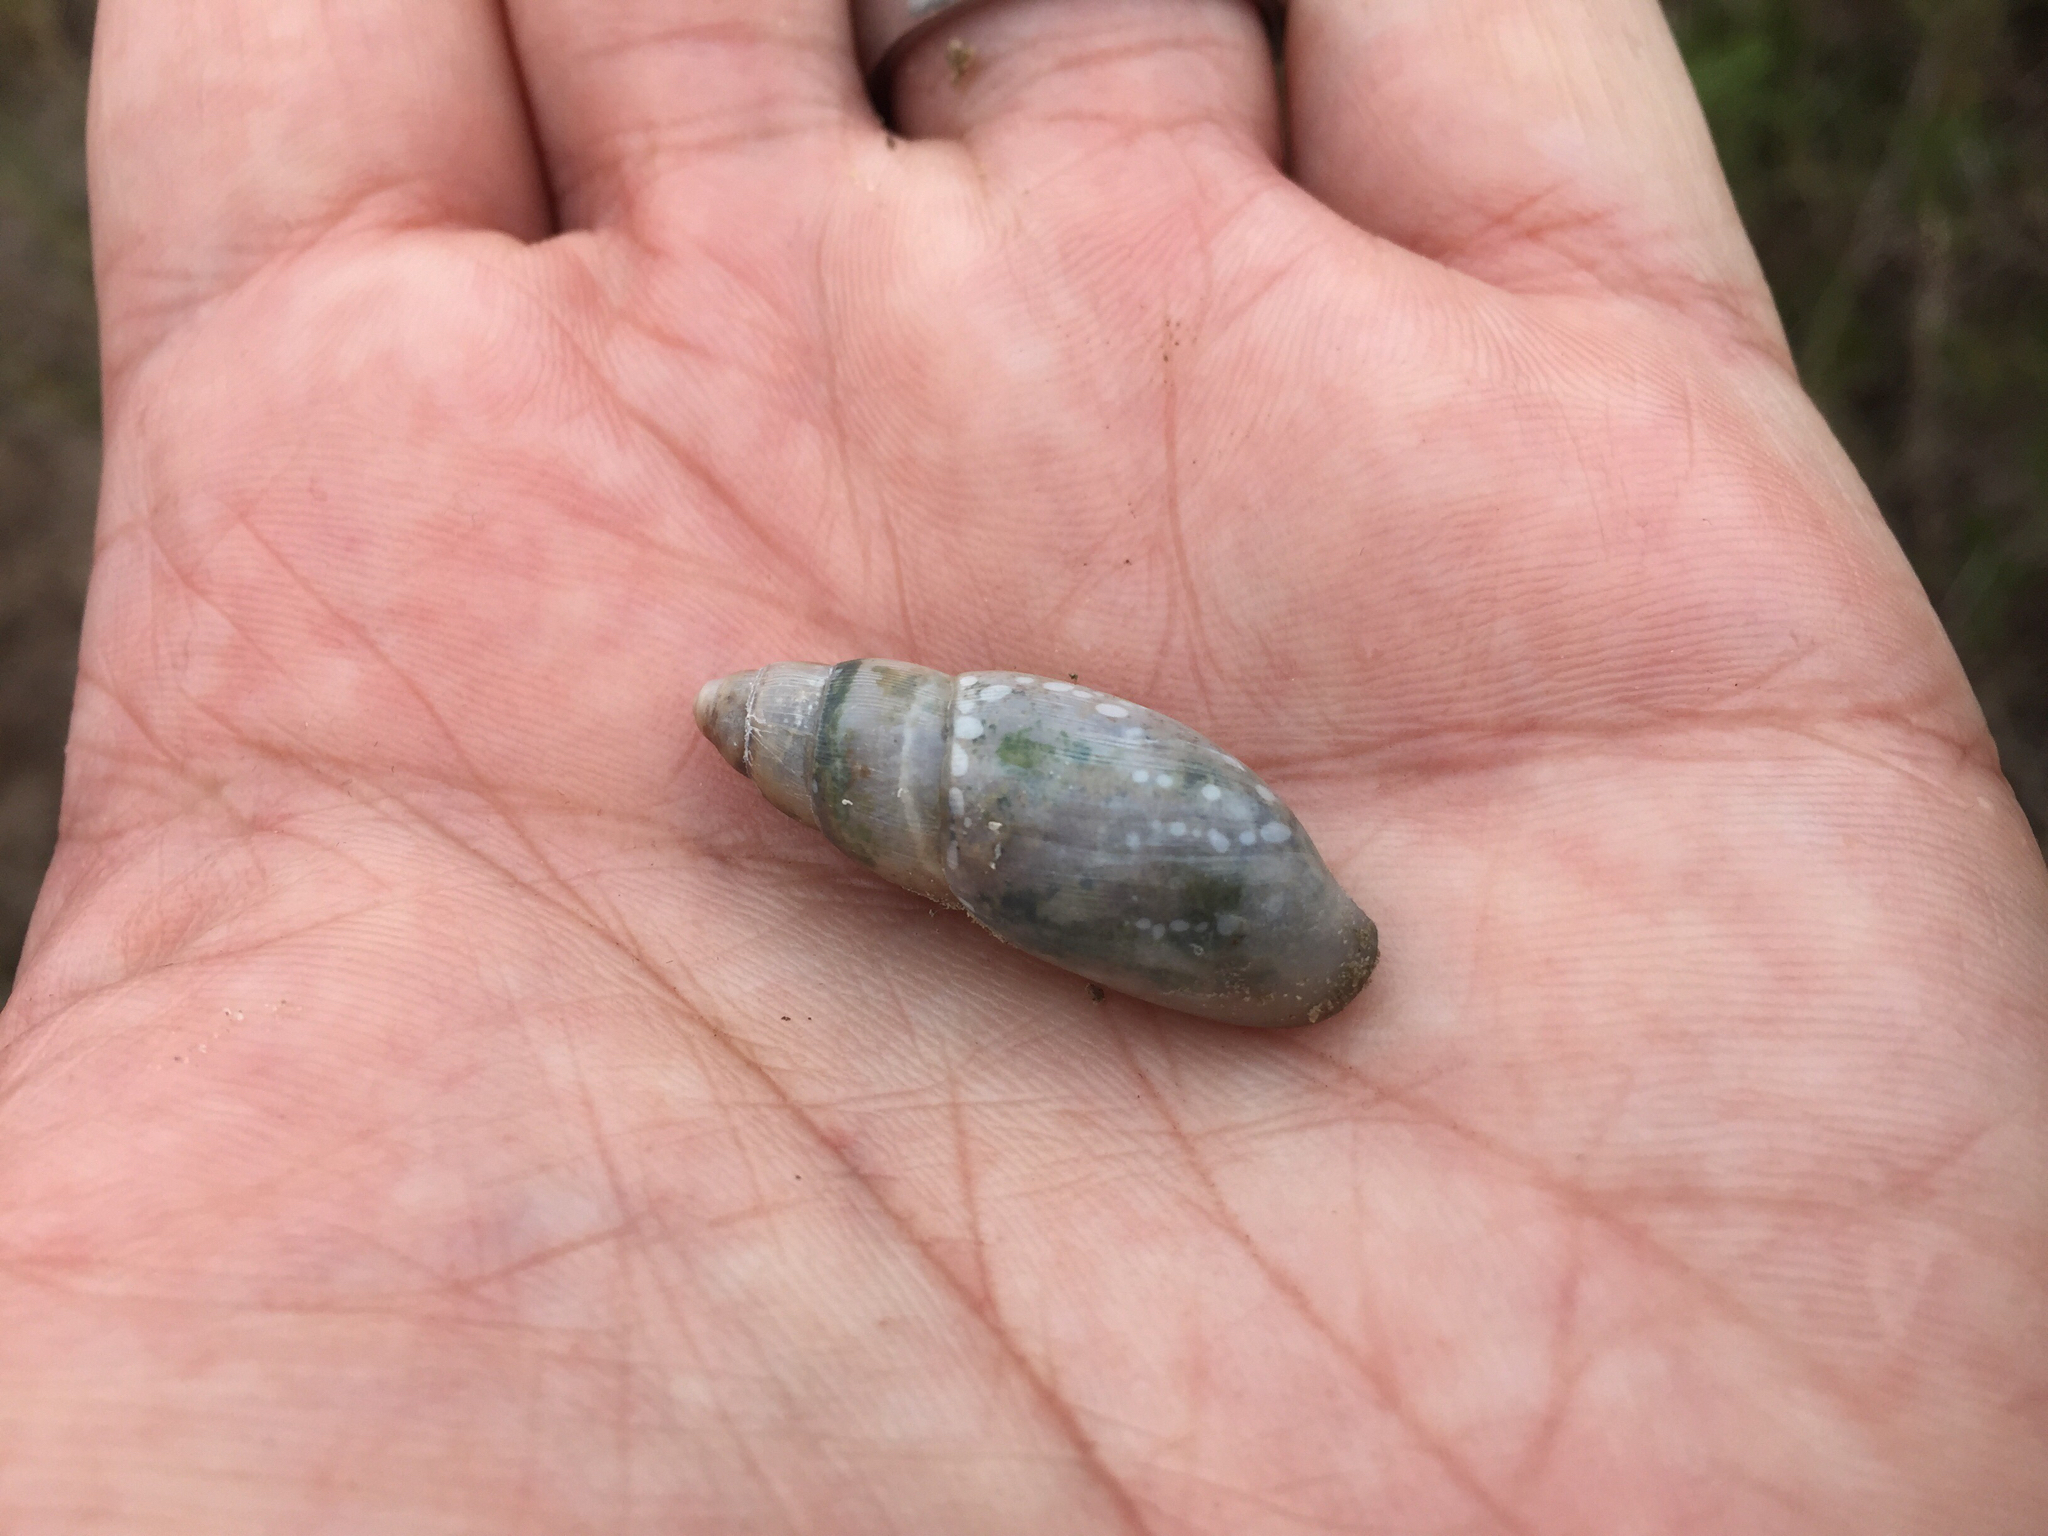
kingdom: Animalia
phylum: Mollusca
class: Gastropoda
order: Stylommatophora
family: Spiraxidae
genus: Euglandina
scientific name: Euglandina texasiana
